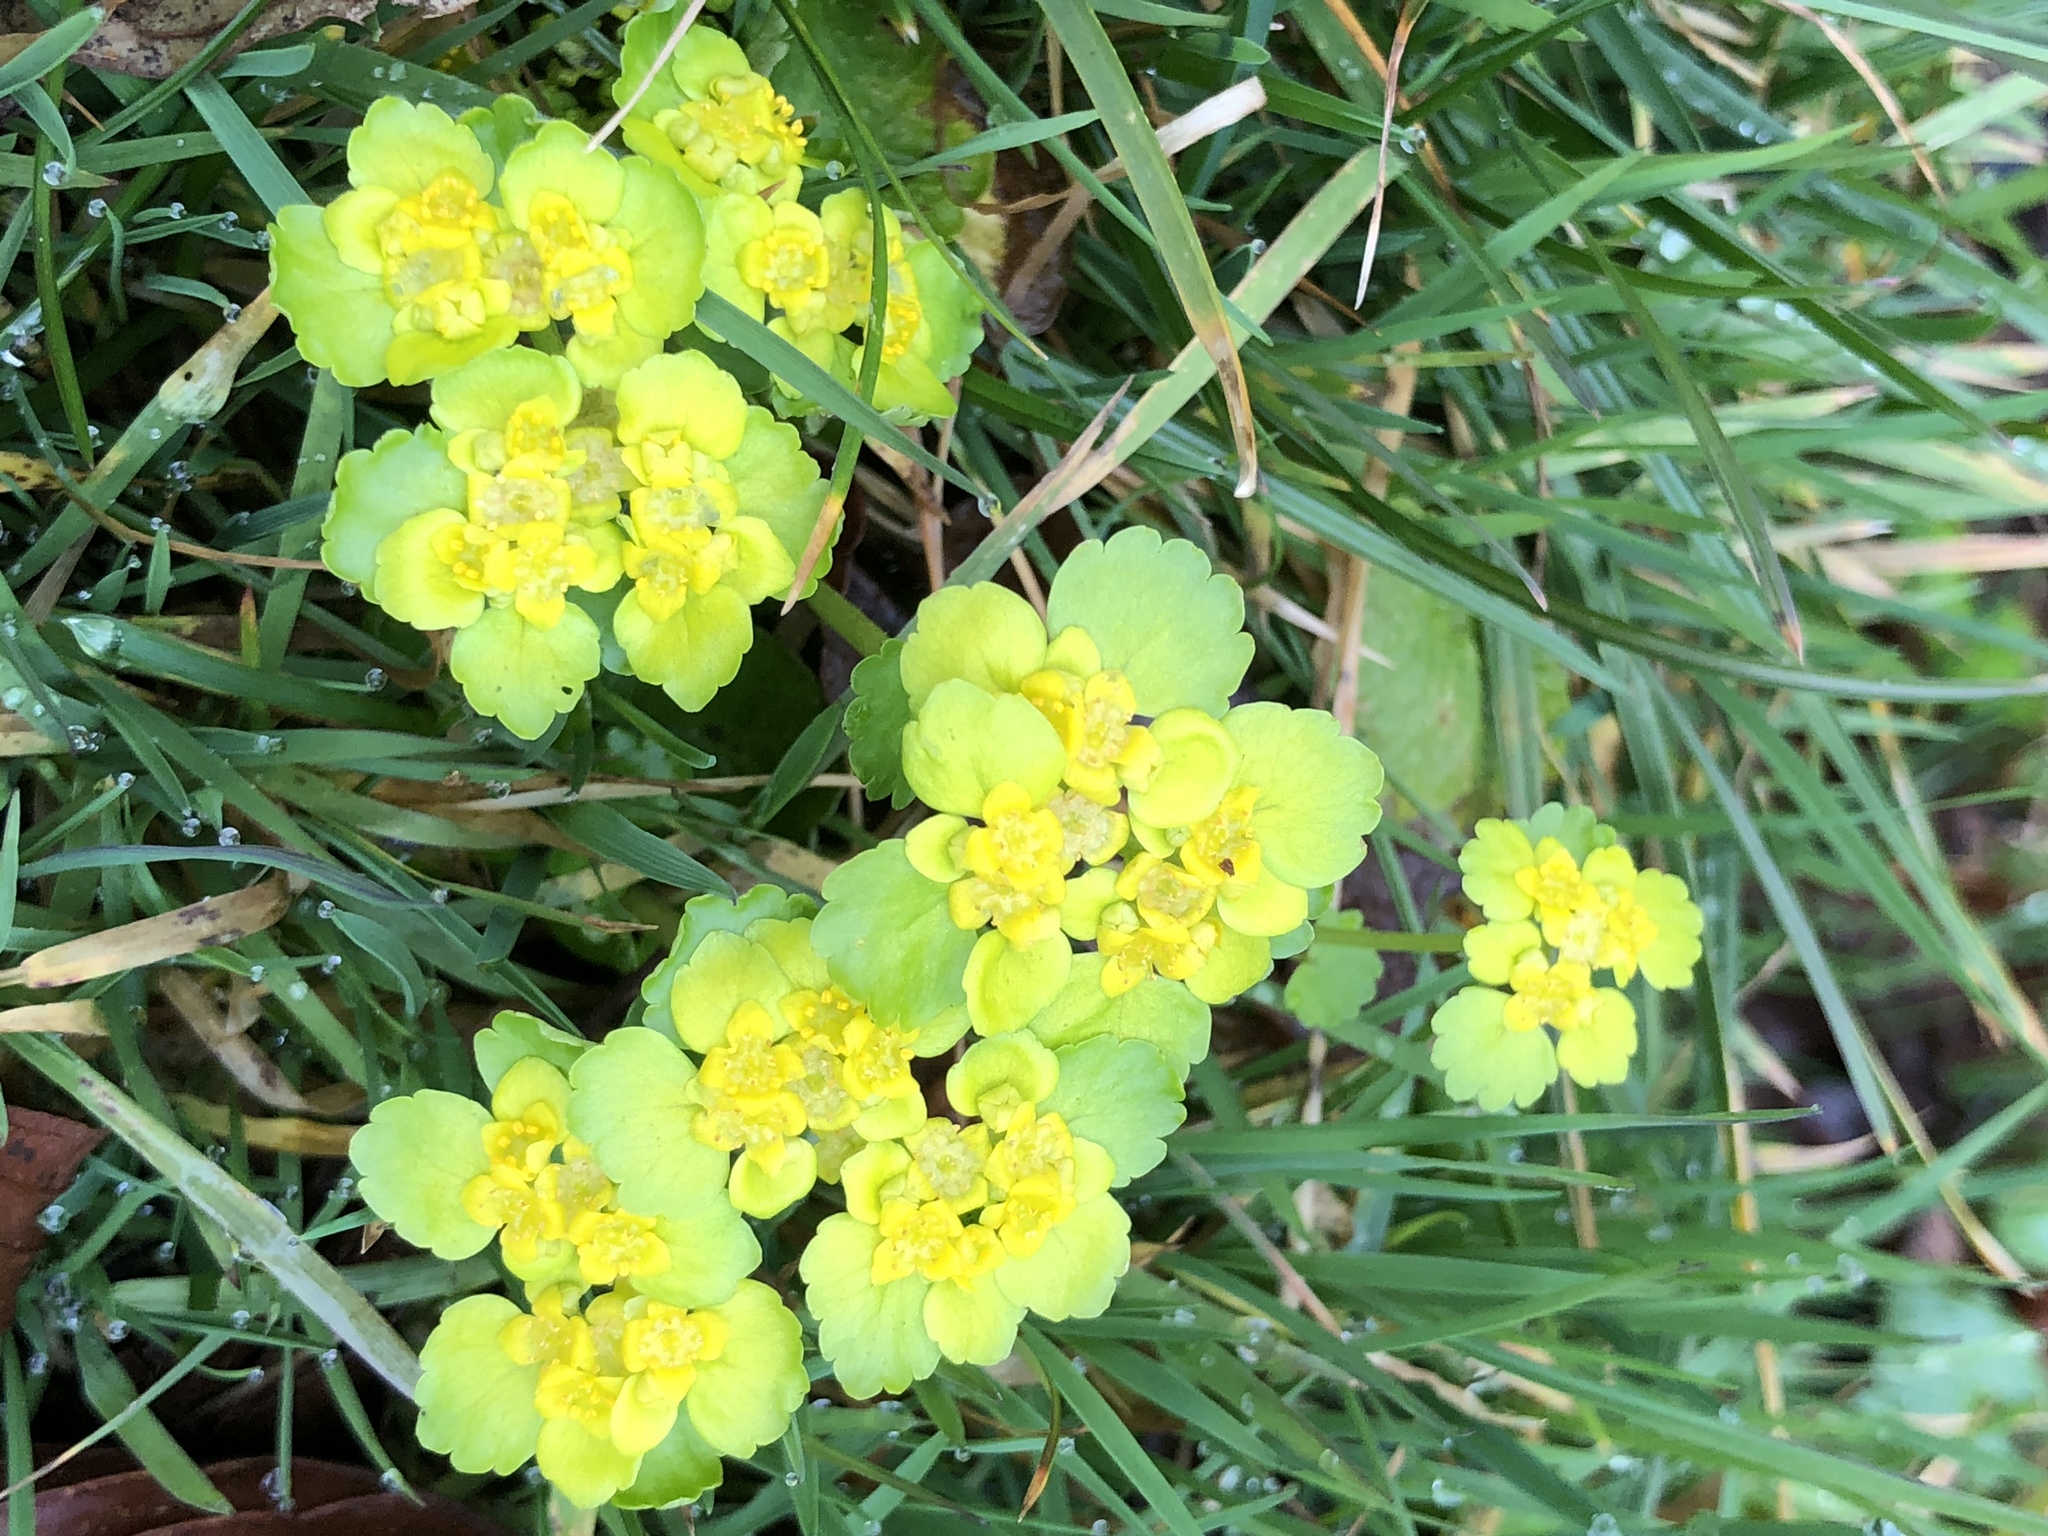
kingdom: Plantae
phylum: Tracheophyta
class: Magnoliopsida
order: Saxifragales
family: Saxifragaceae
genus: Chrysosplenium
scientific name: Chrysosplenium alternifolium
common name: Alternate-leaved golden-saxifrage
